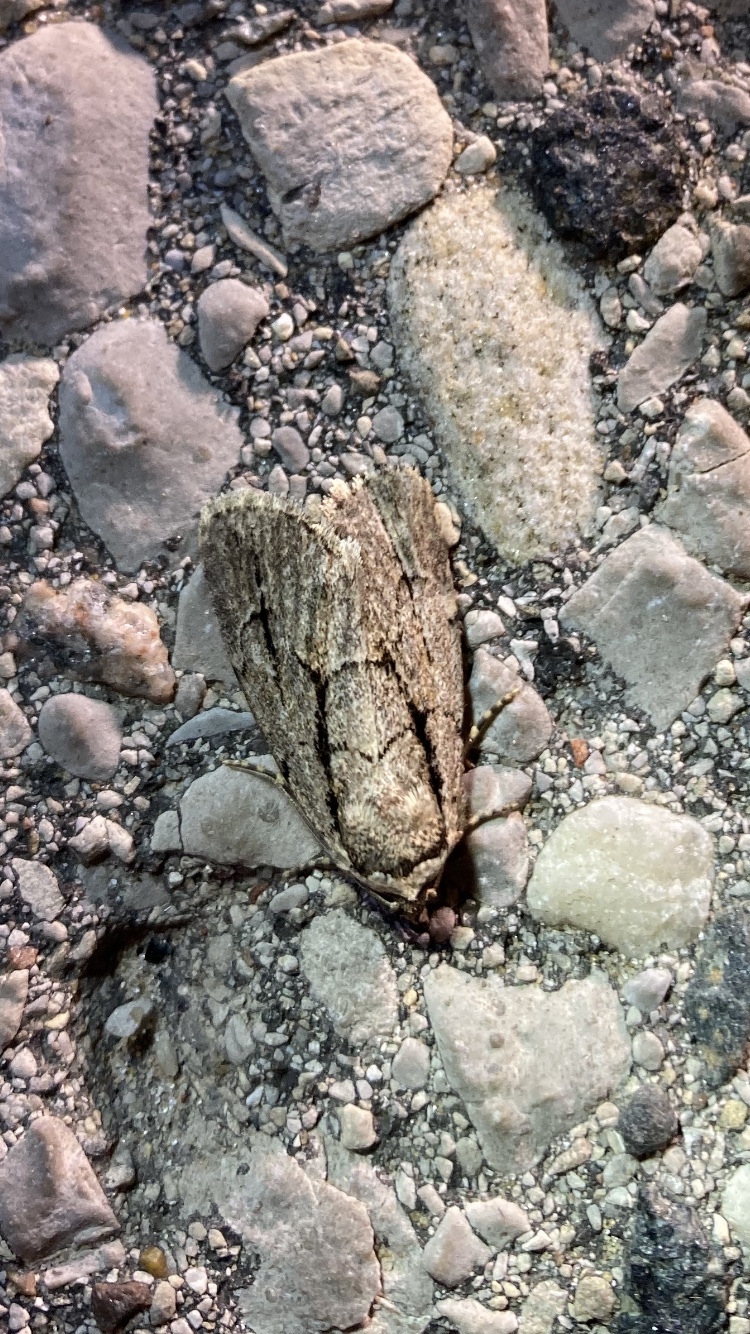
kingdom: Animalia
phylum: Arthropoda
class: Insecta
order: Lepidoptera
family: Noctuidae
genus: Sympistis
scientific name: Sympistis dinalda
